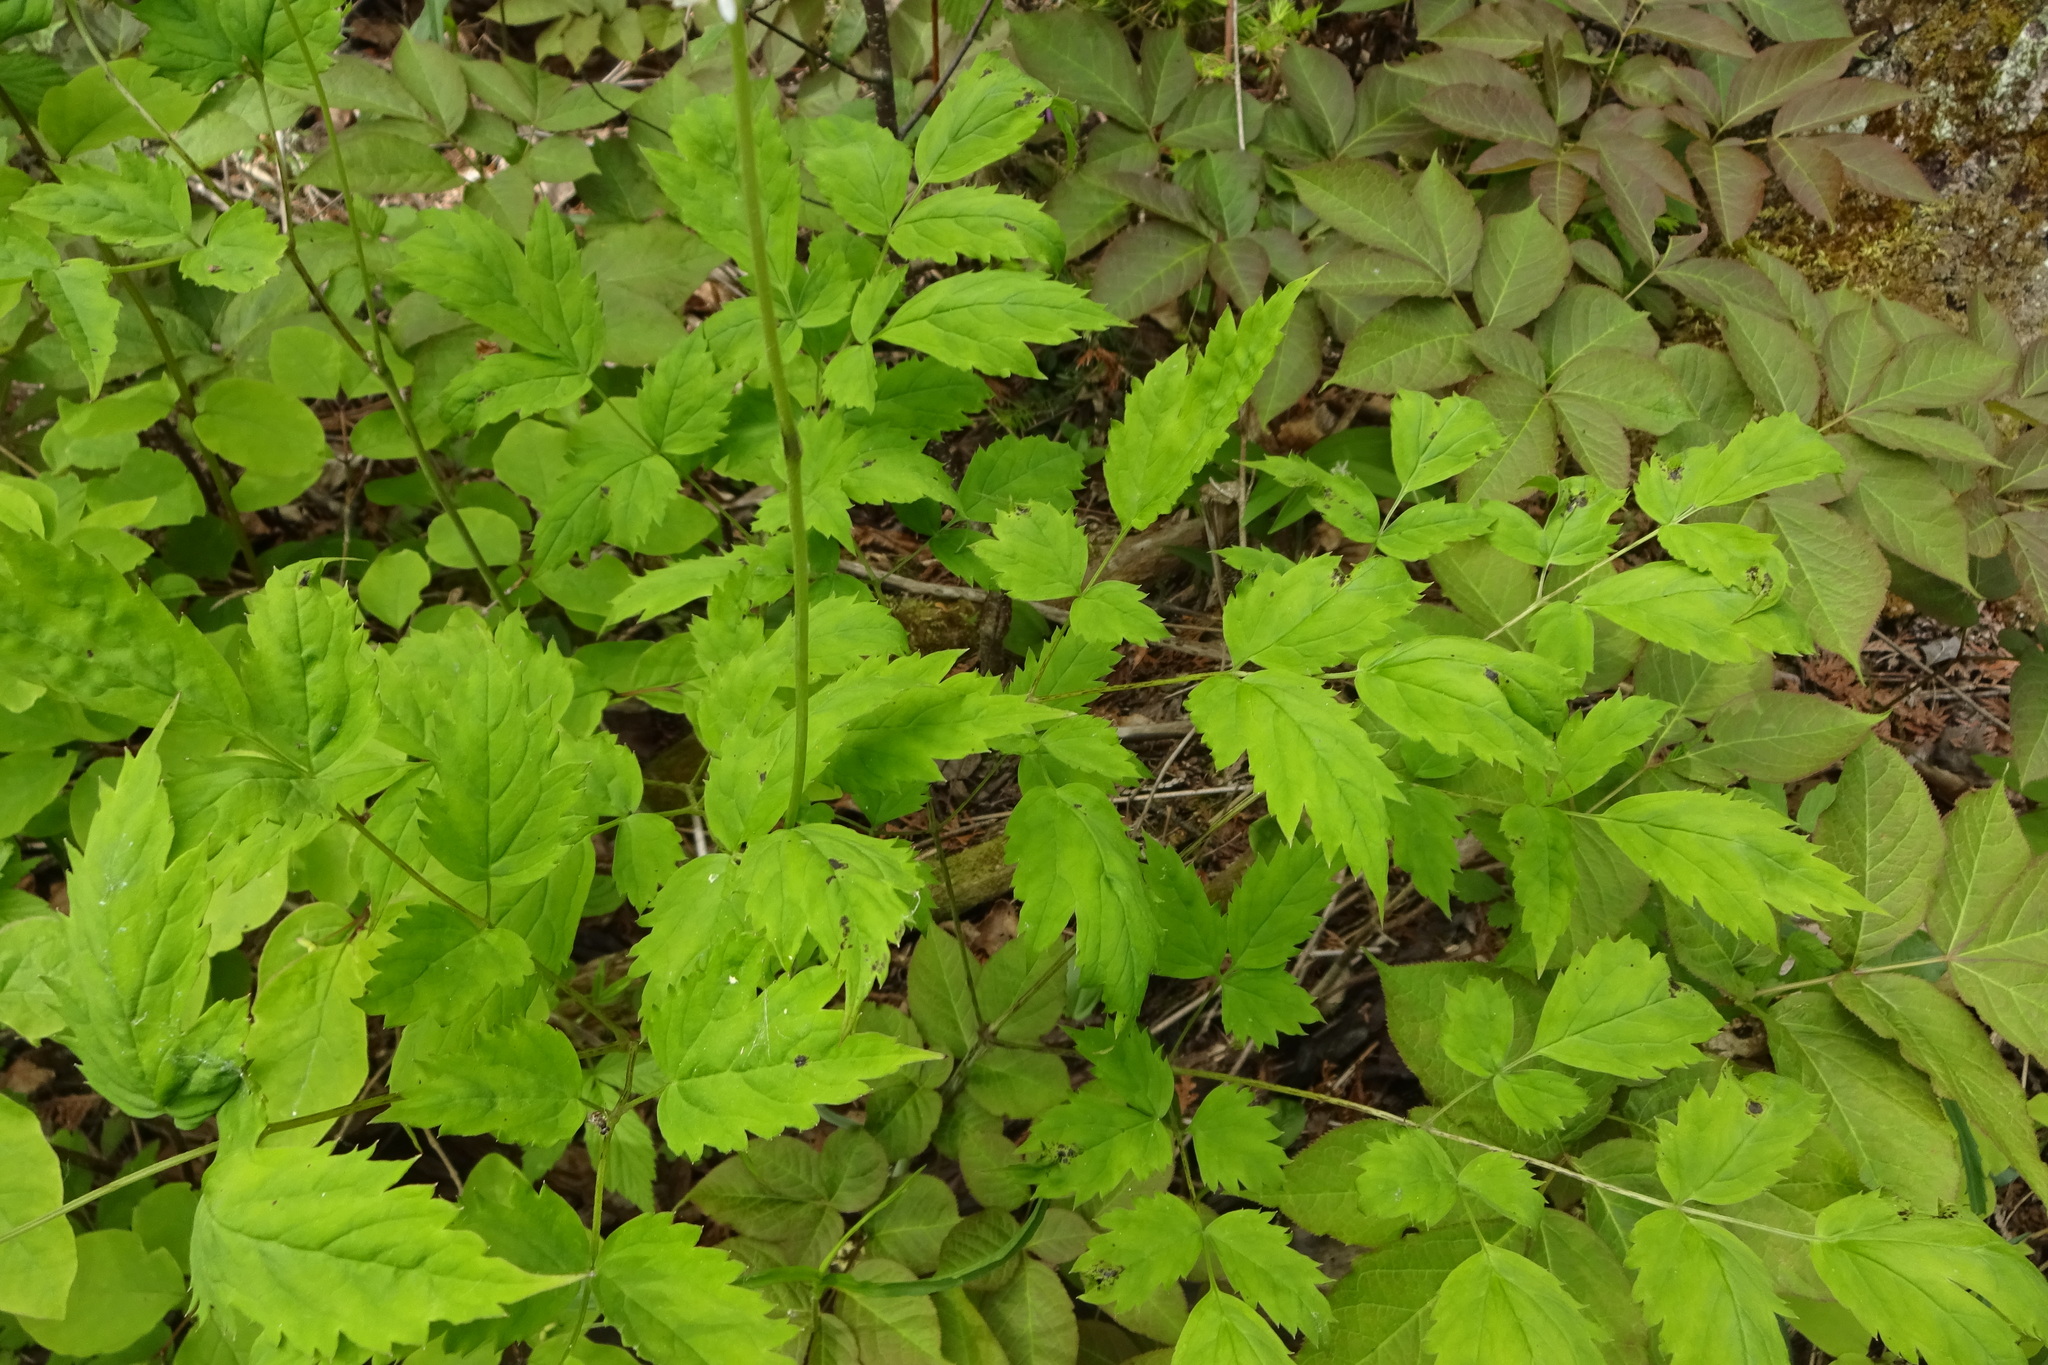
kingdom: Plantae
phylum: Tracheophyta
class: Magnoliopsida
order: Ranunculales
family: Ranunculaceae
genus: Actaea
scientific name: Actaea pachypoda
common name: Doll's-eyes
